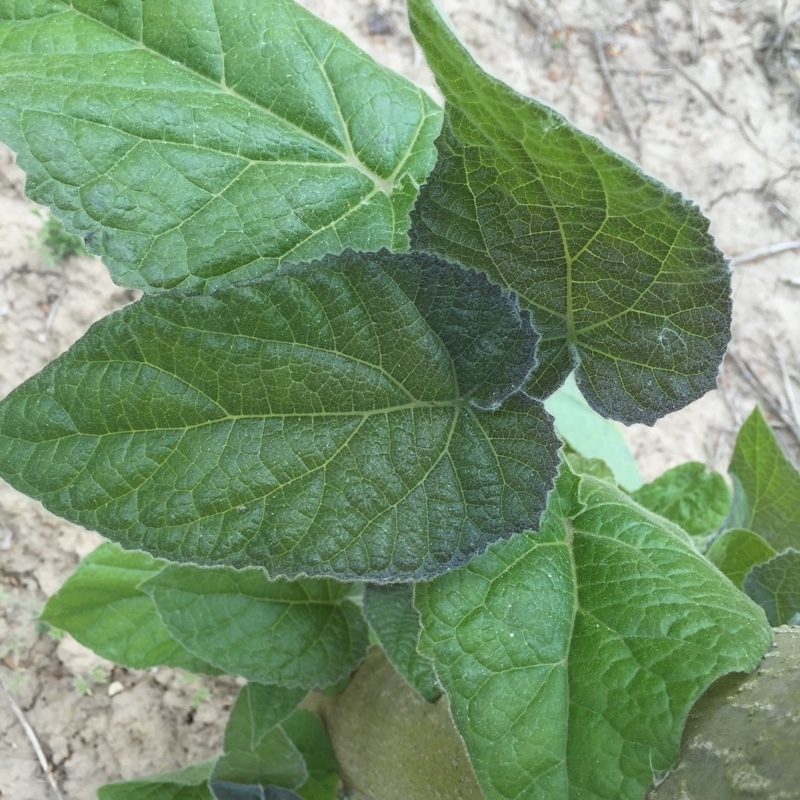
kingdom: Plantae
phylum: Tracheophyta
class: Magnoliopsida
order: Lamiales
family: Paulowniaceae
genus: Paulownia
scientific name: Paulownia tomentosa
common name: Foxglove-tree
